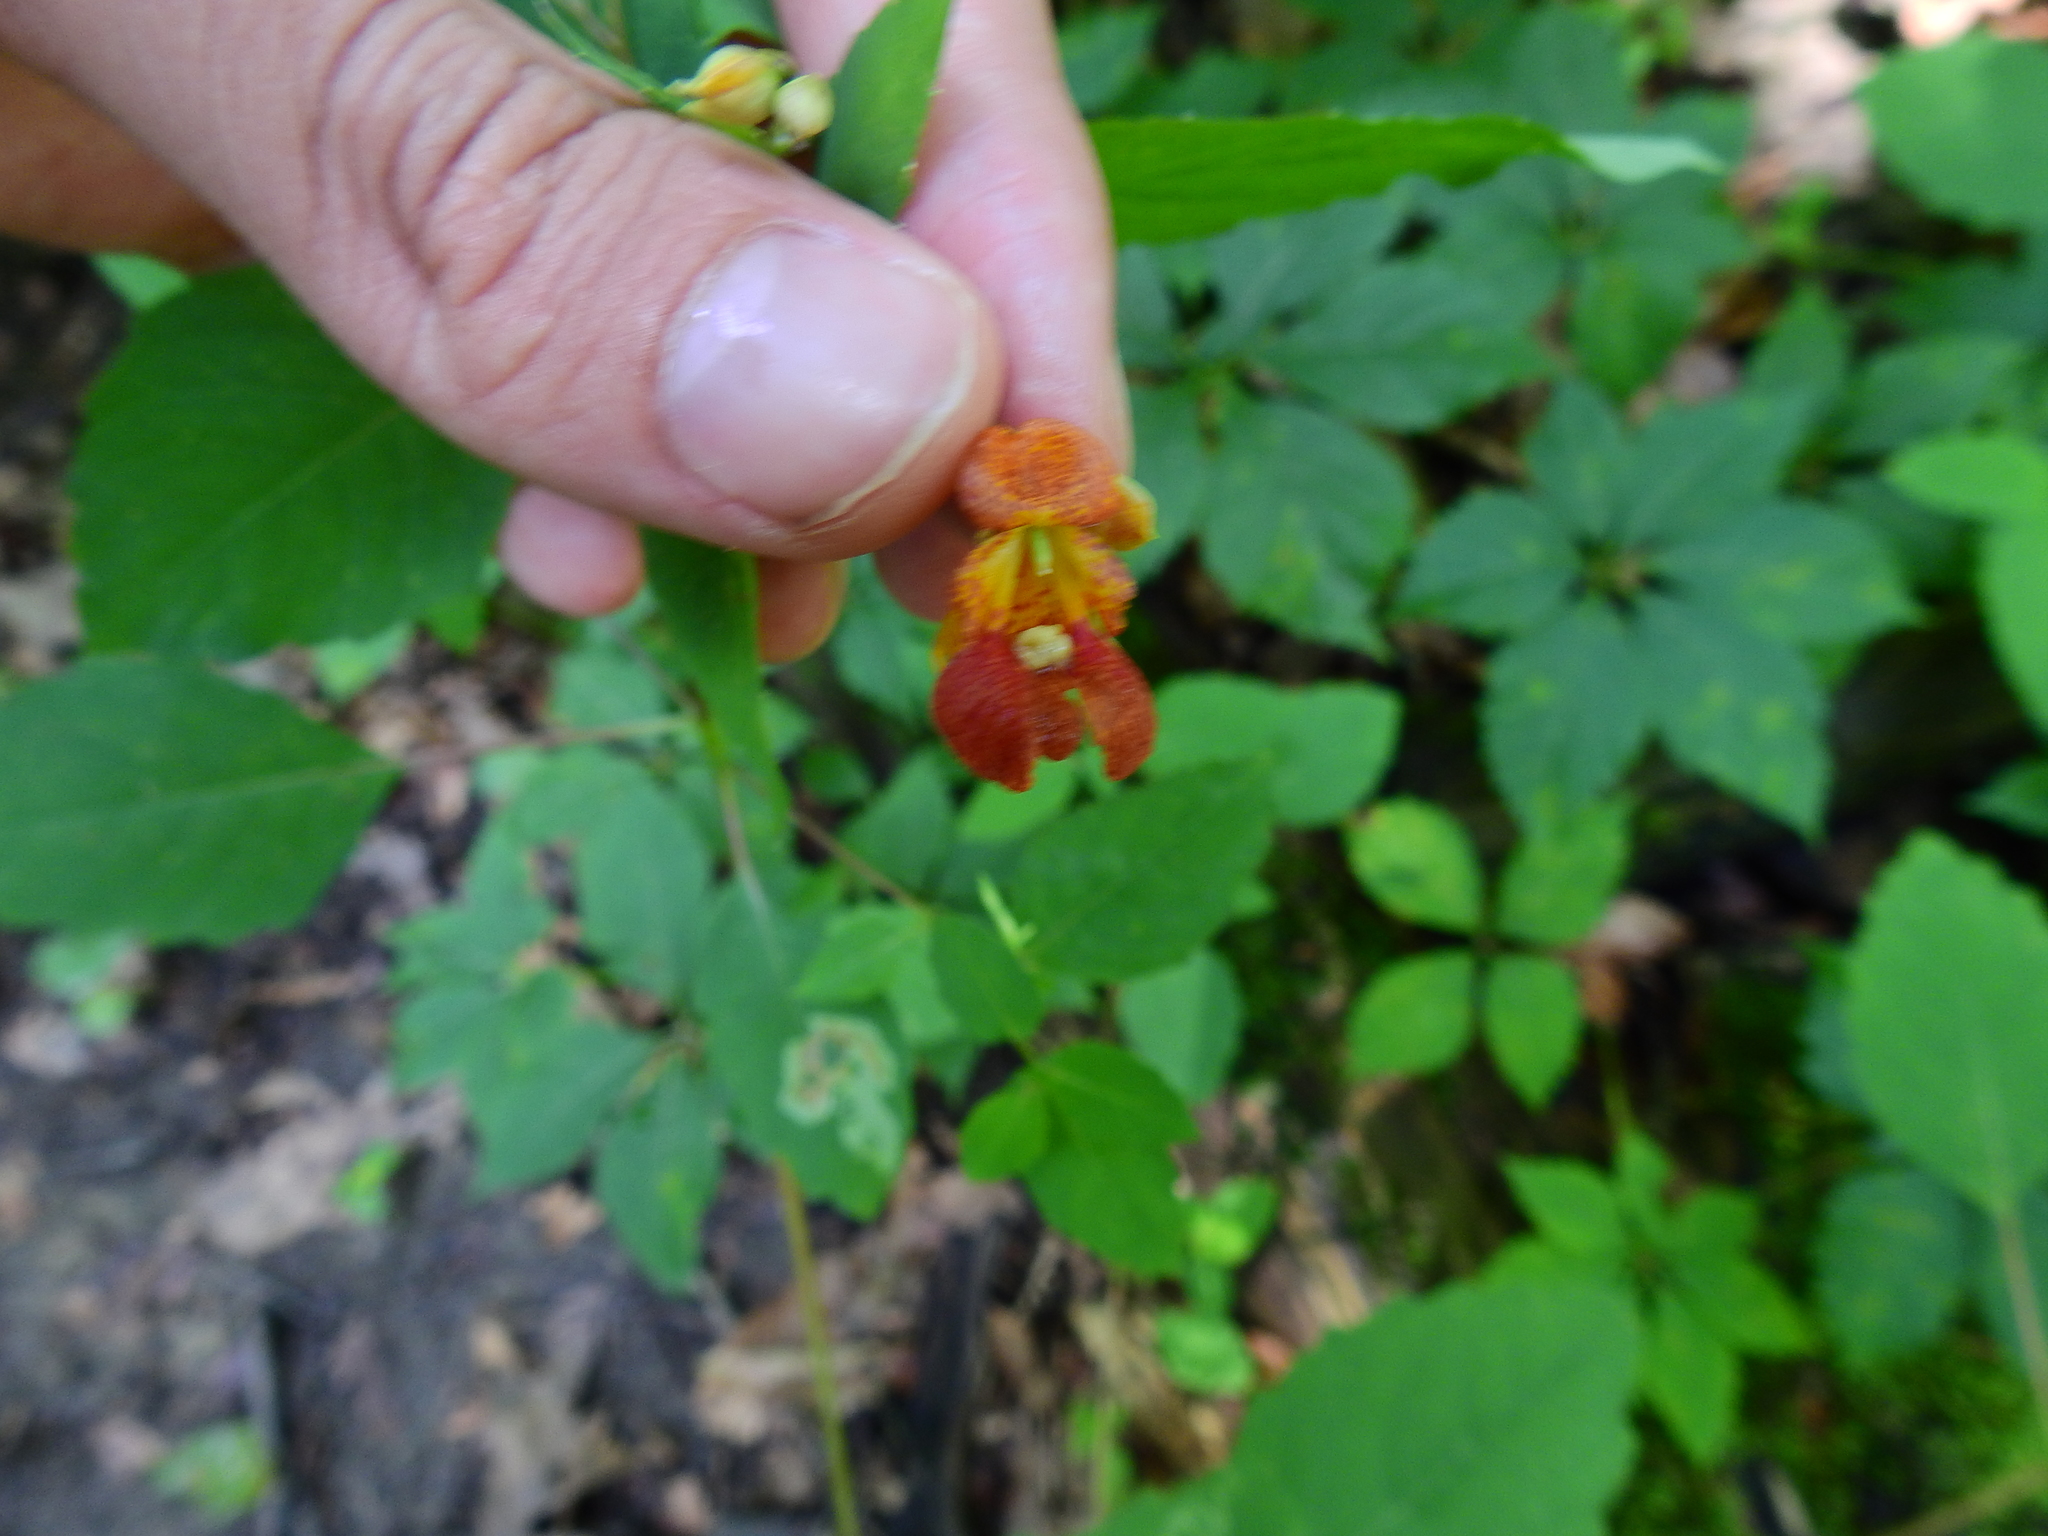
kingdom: Plantae
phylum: Tracheophyta
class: Magnoliopsida
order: Ericales
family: Balsaminaceae
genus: Impatiens
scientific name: Impatiens capensis
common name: Orange balsam
